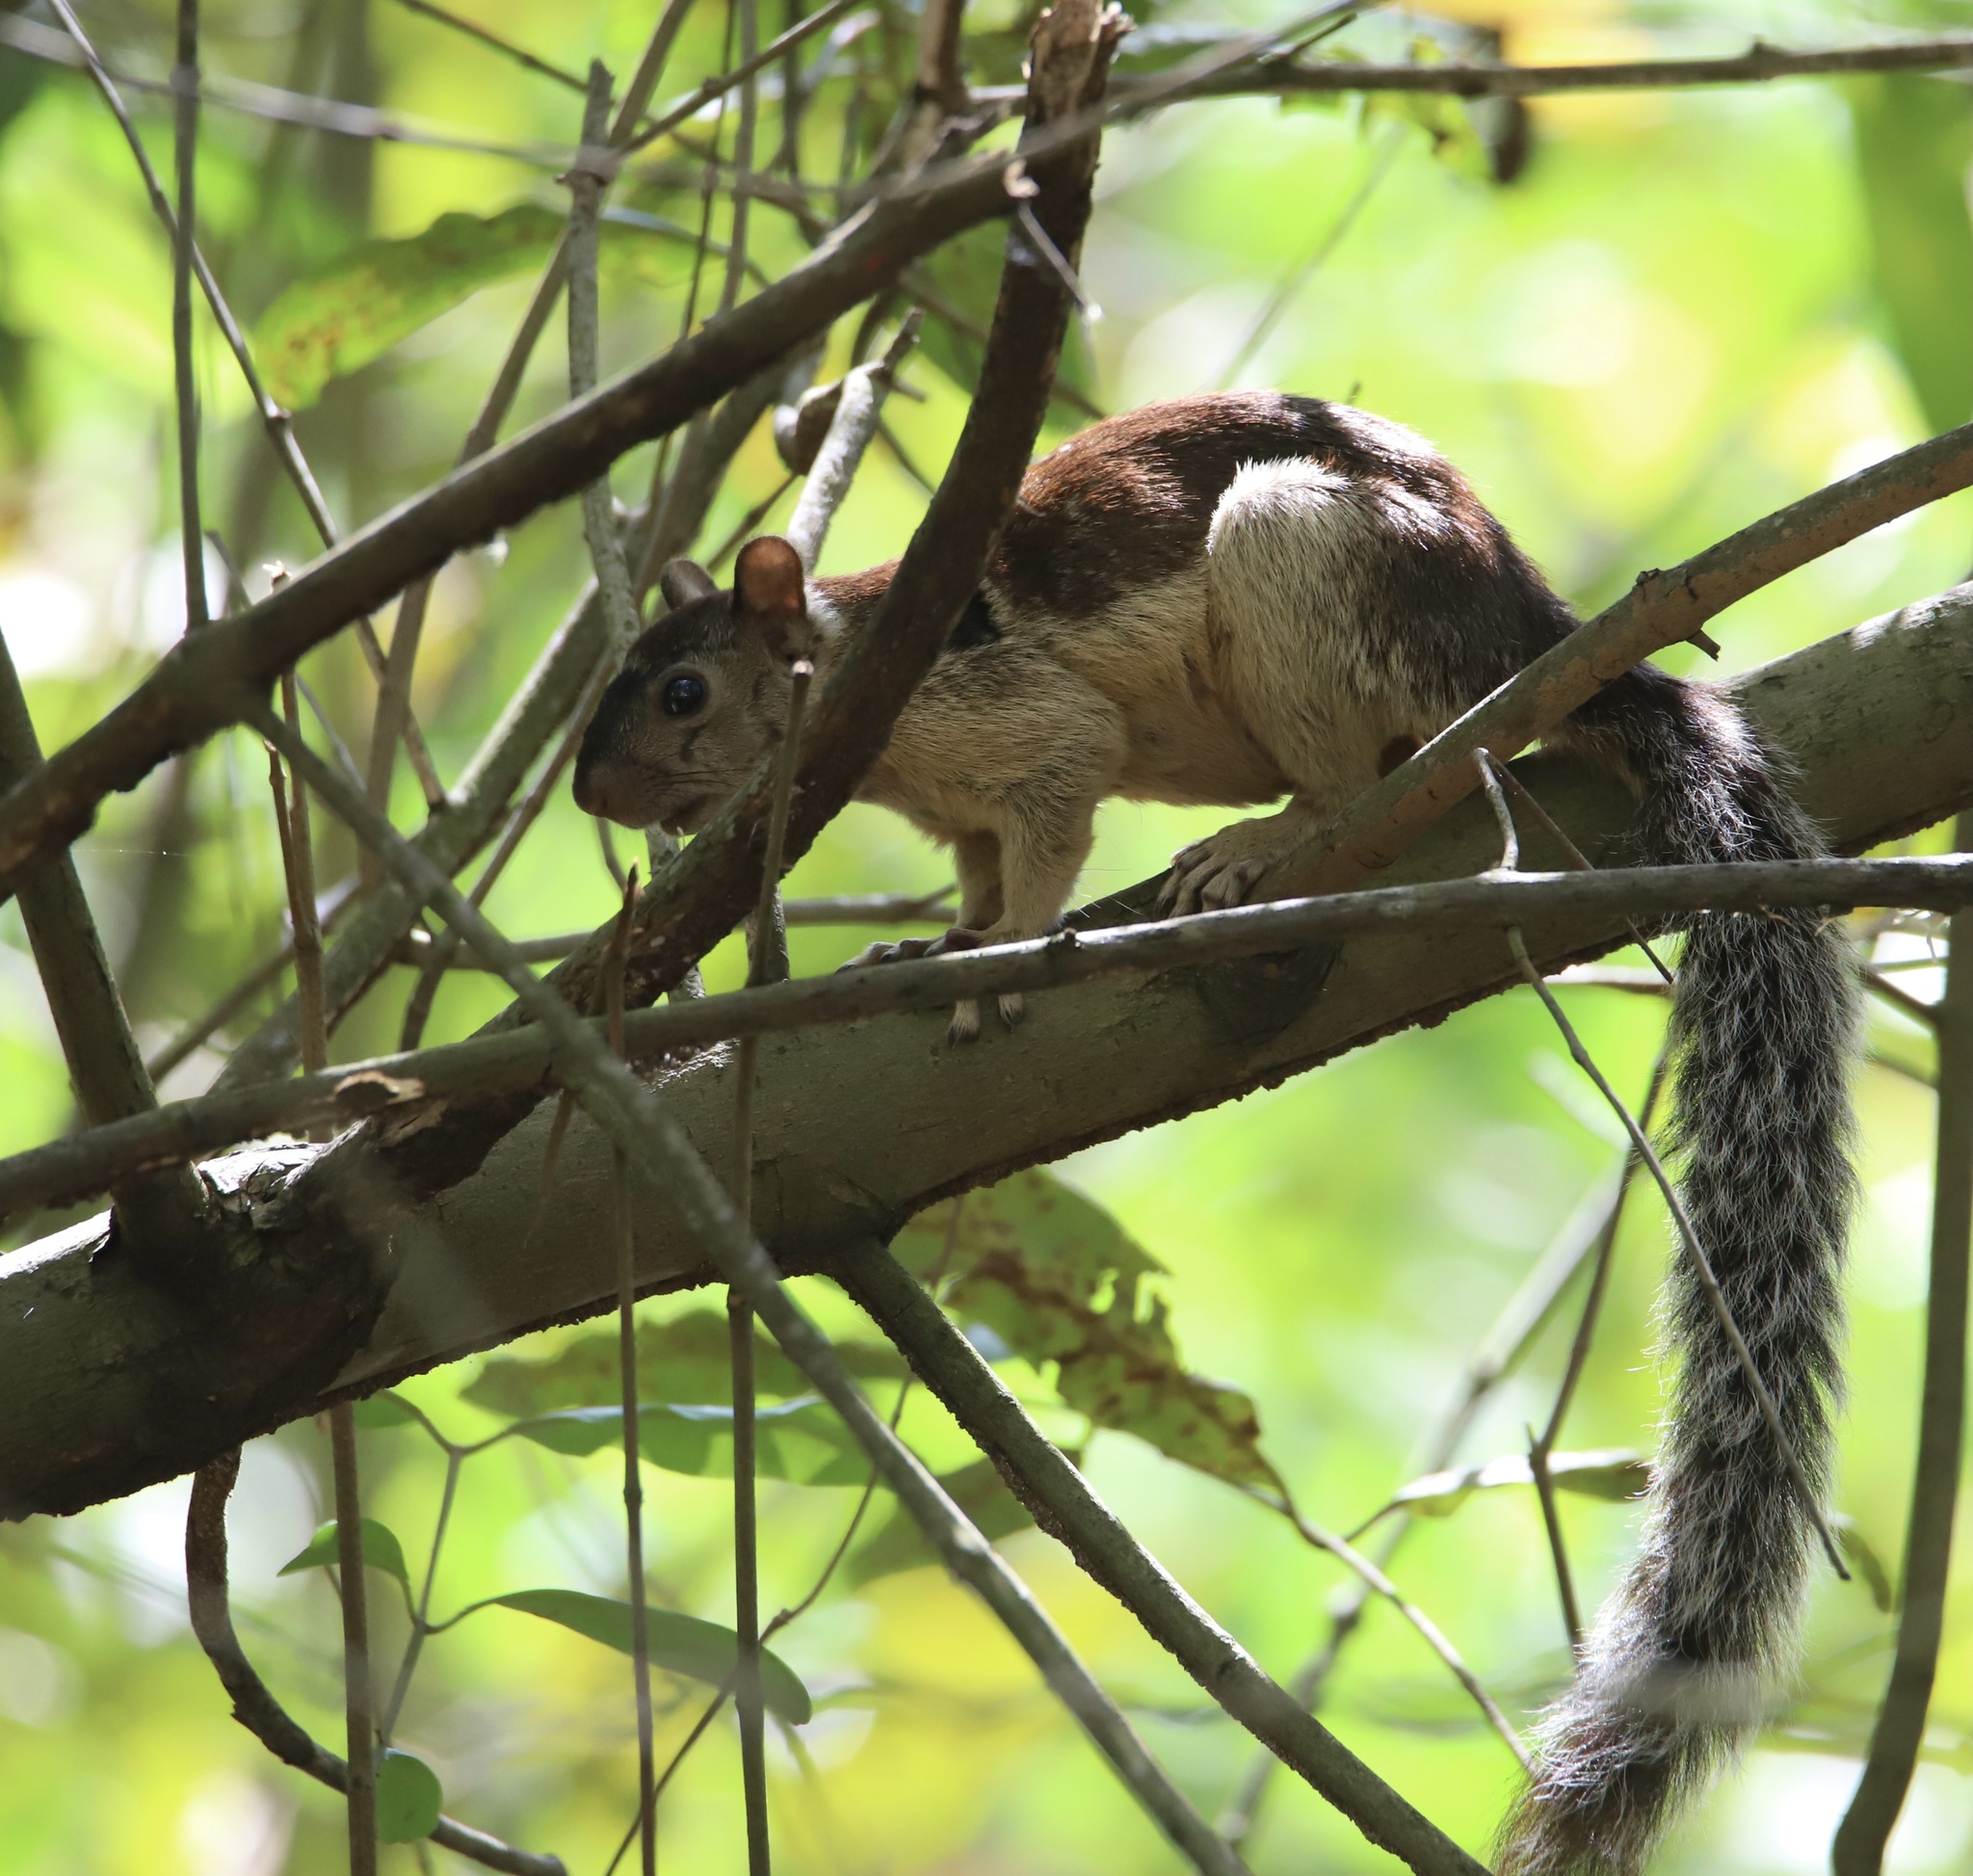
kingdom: Animalia
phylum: Chordata
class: Mammalia
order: Rodentia
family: Sciuridae
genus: Sciurus
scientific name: Sciurus variegatoides
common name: Variegated squirrel
